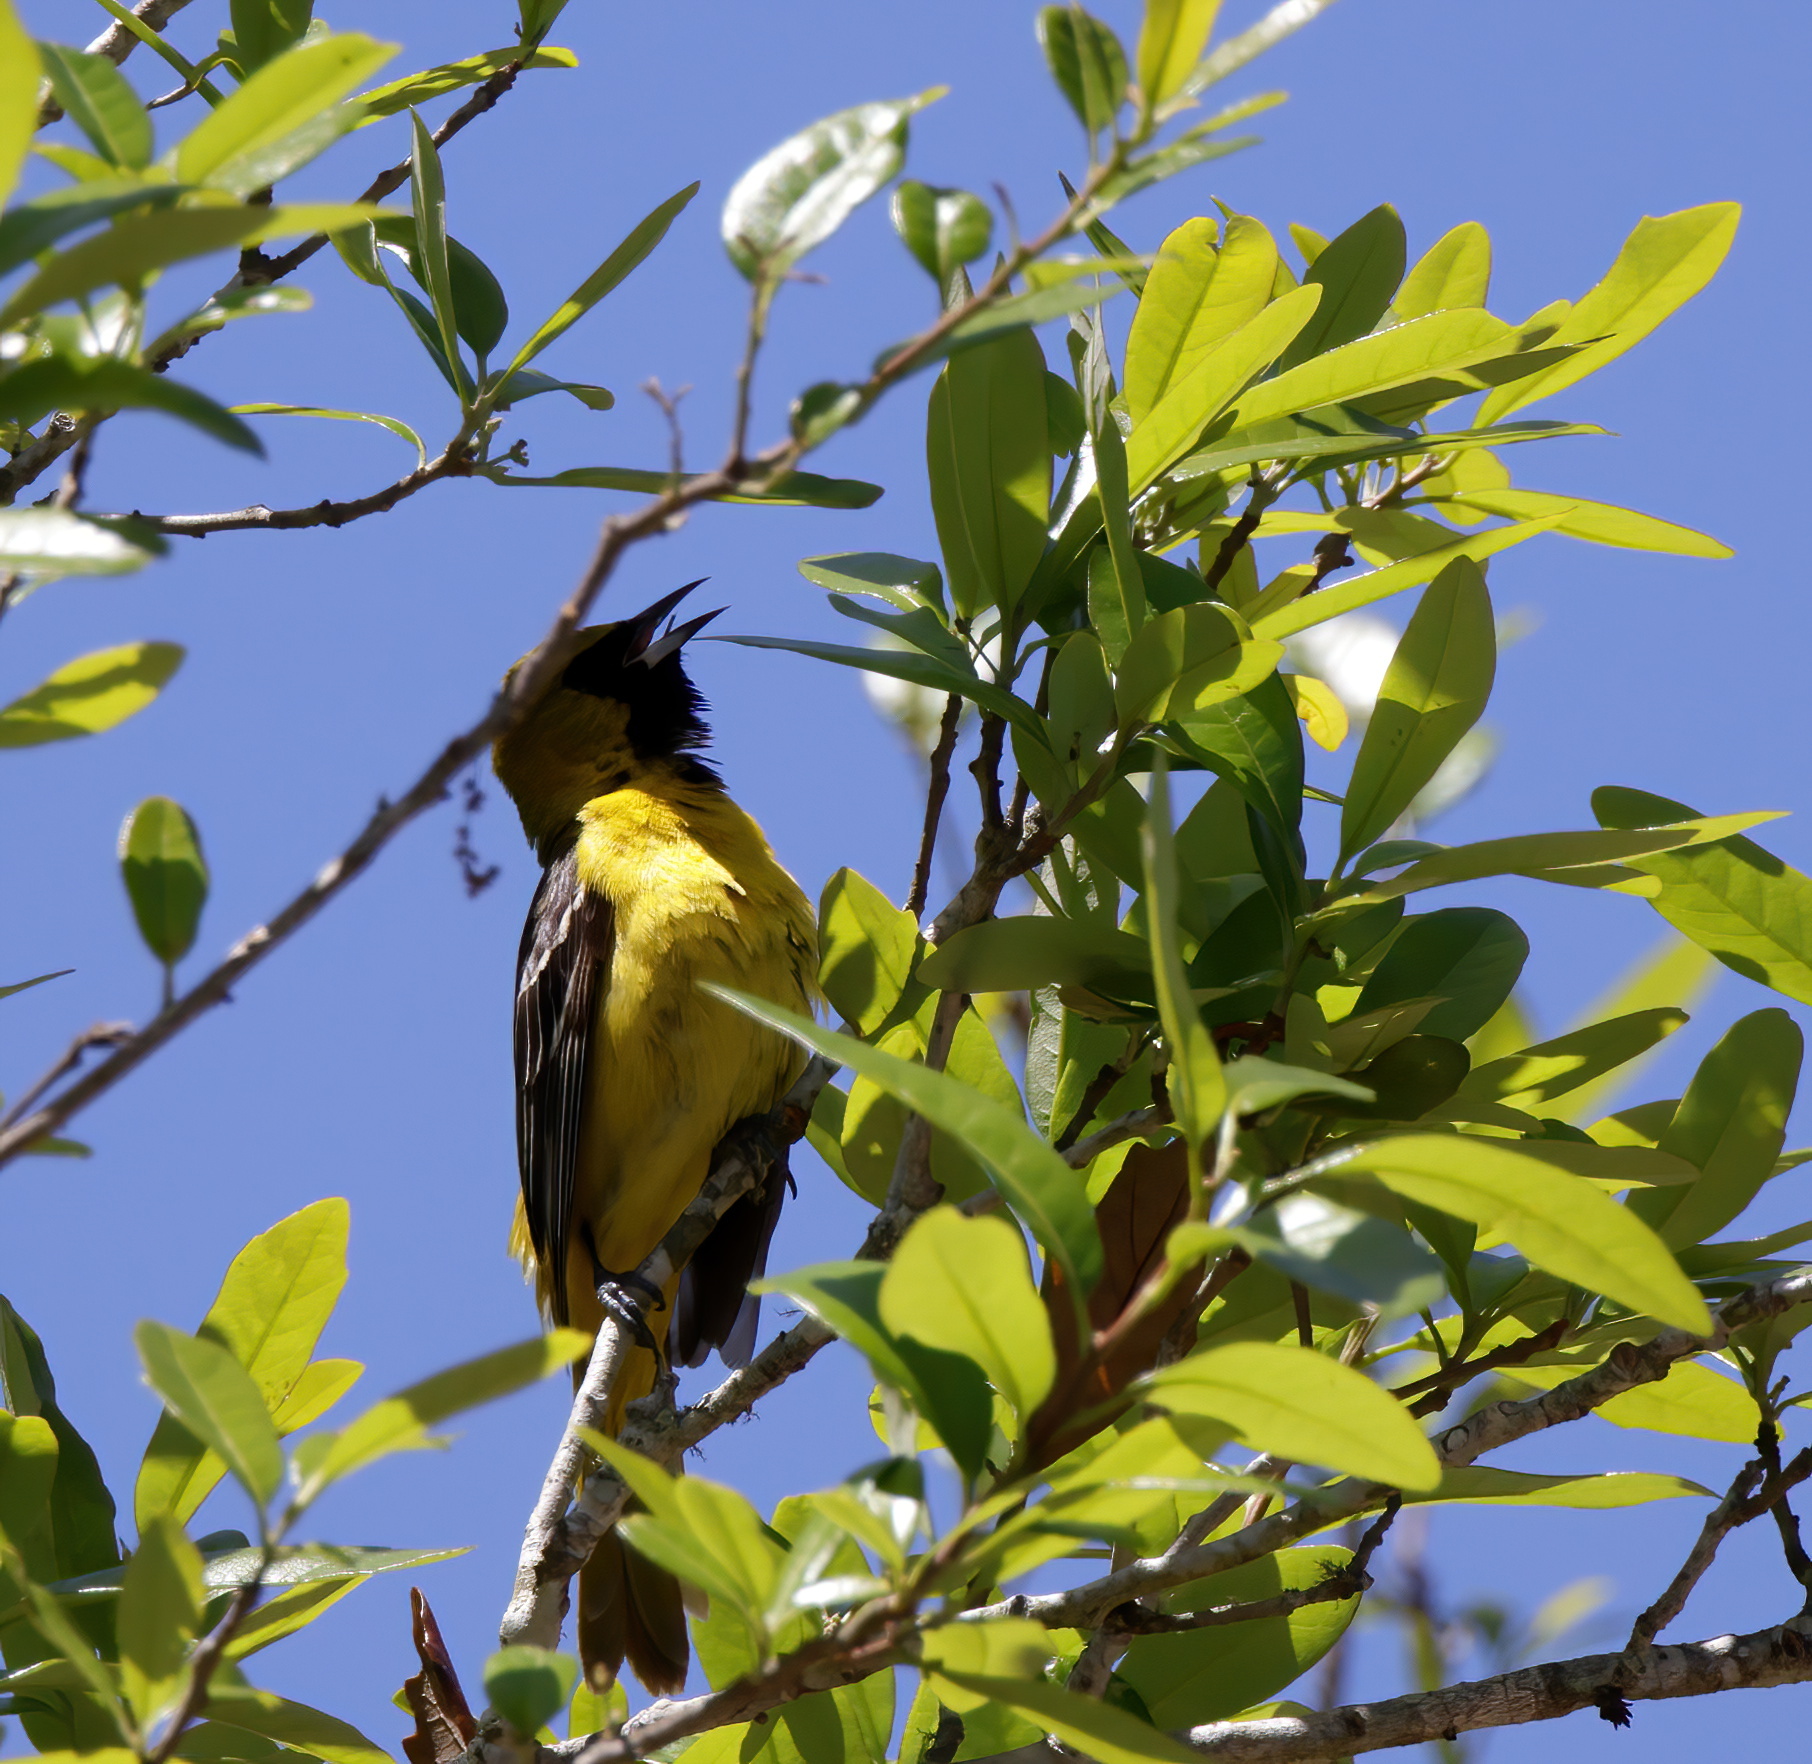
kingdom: Animalia
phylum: Chordata
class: Aves
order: Passeriformes
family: Icteridae
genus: Icterus
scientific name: Icterus spurius
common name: Orchard oriole
